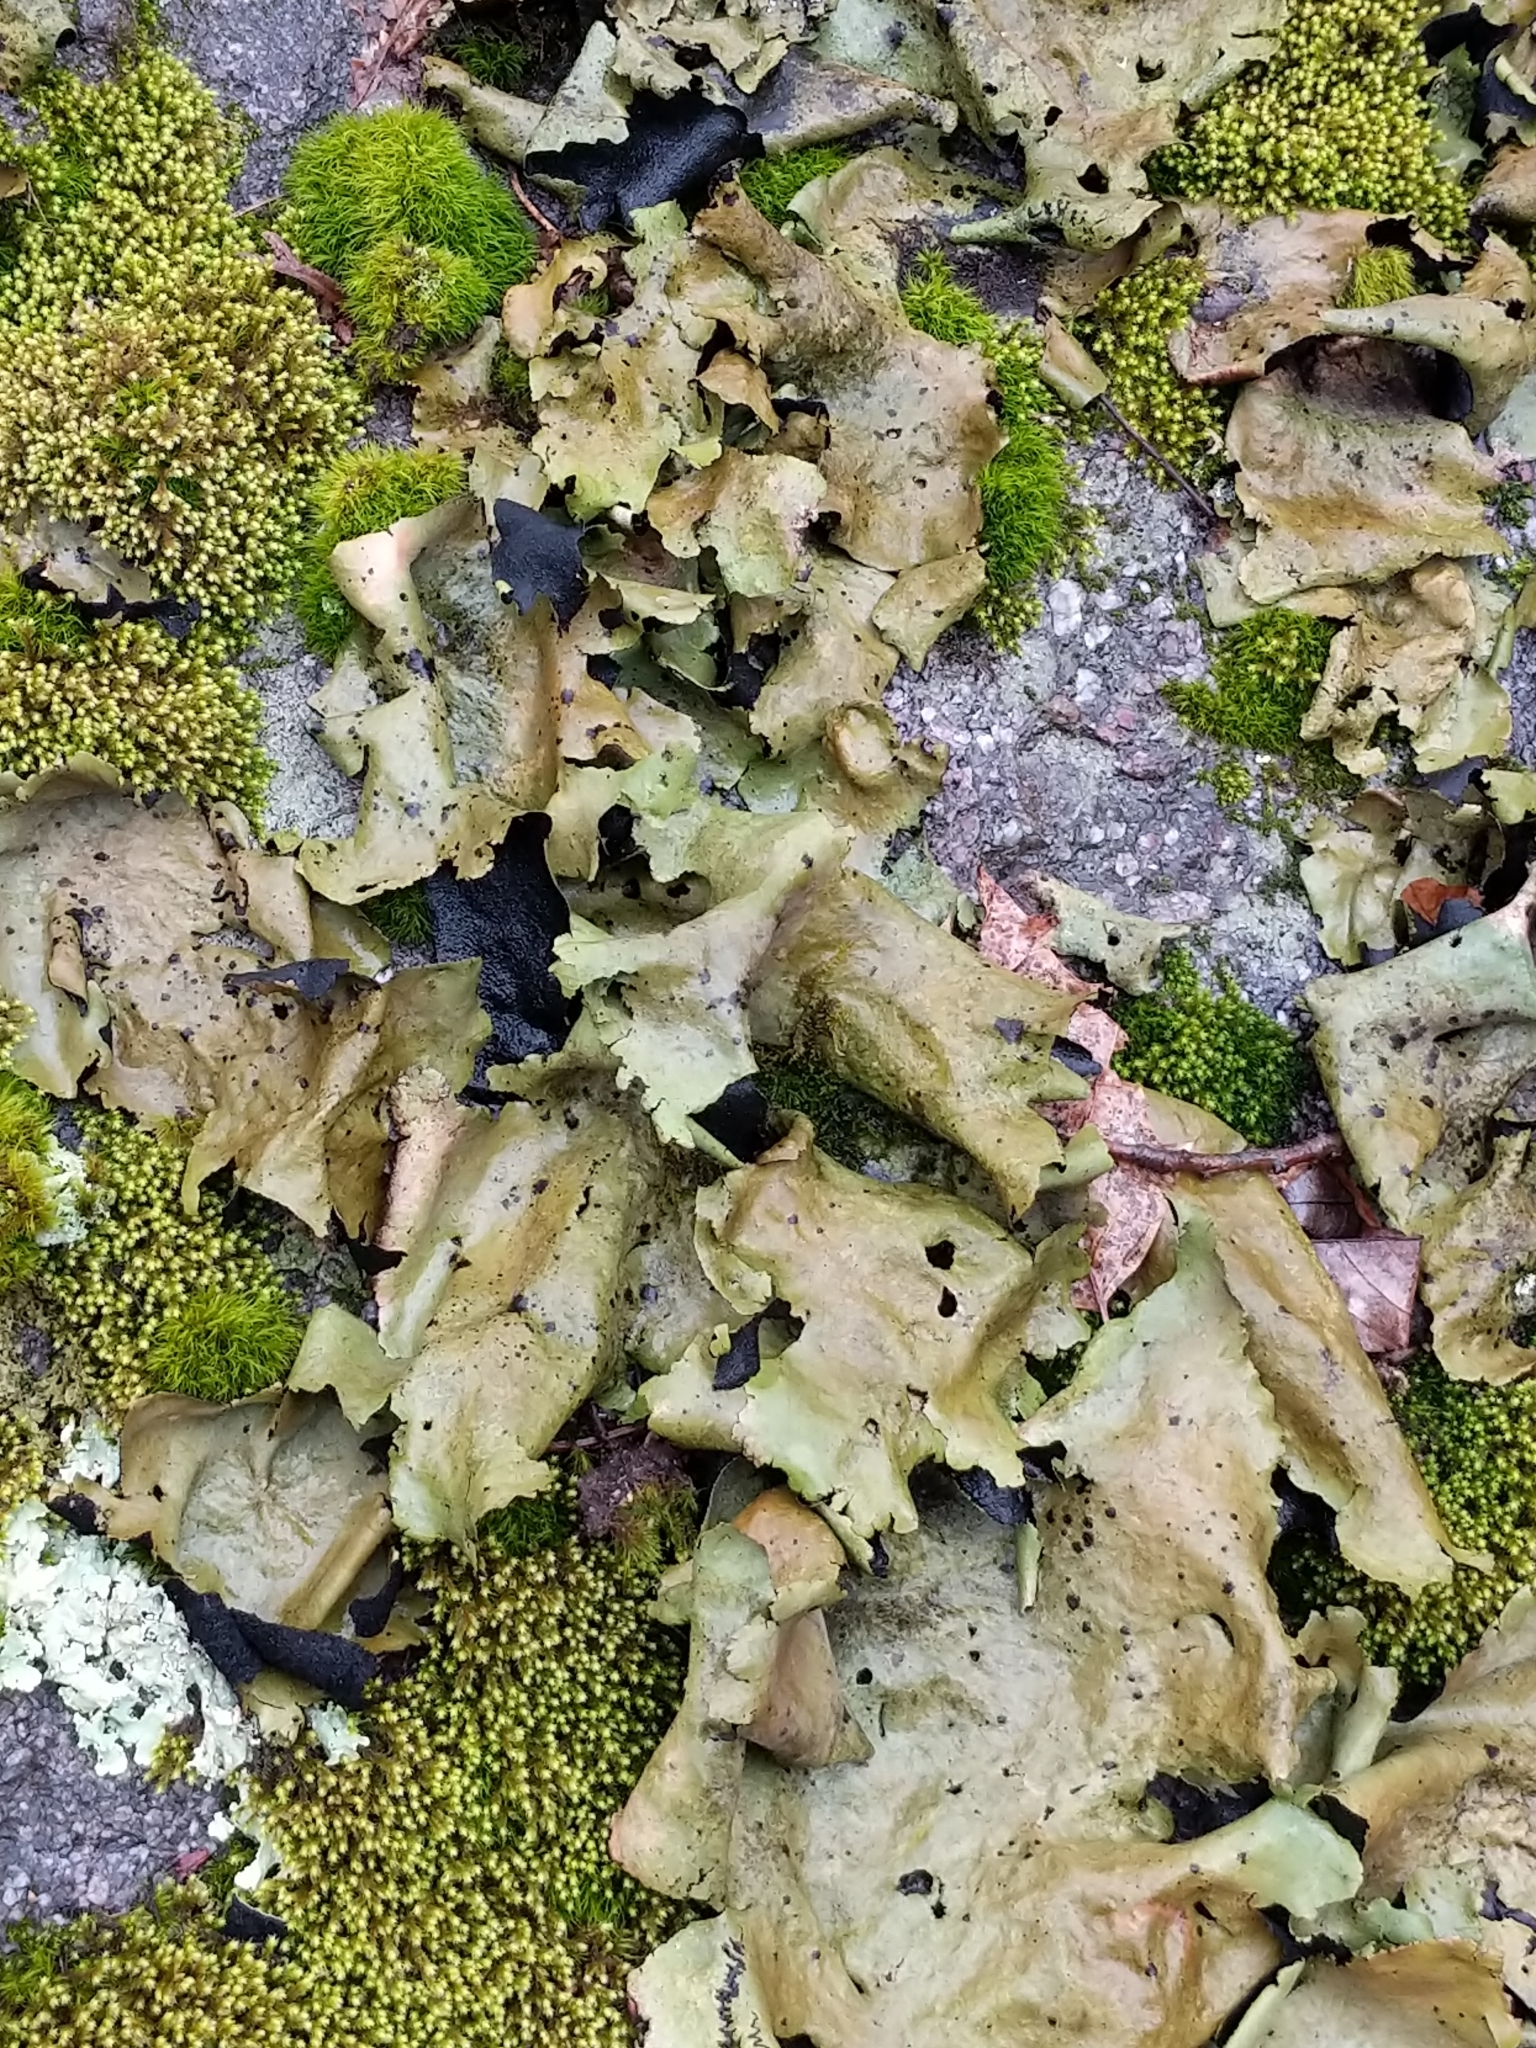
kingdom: Fungi
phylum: Ascomycota
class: Lecanoromycetes
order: Umbilicariales
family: Umbilicariaceae
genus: Umbilicaria
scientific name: Umbilicaria mammulata
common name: Smooth rock tripe
